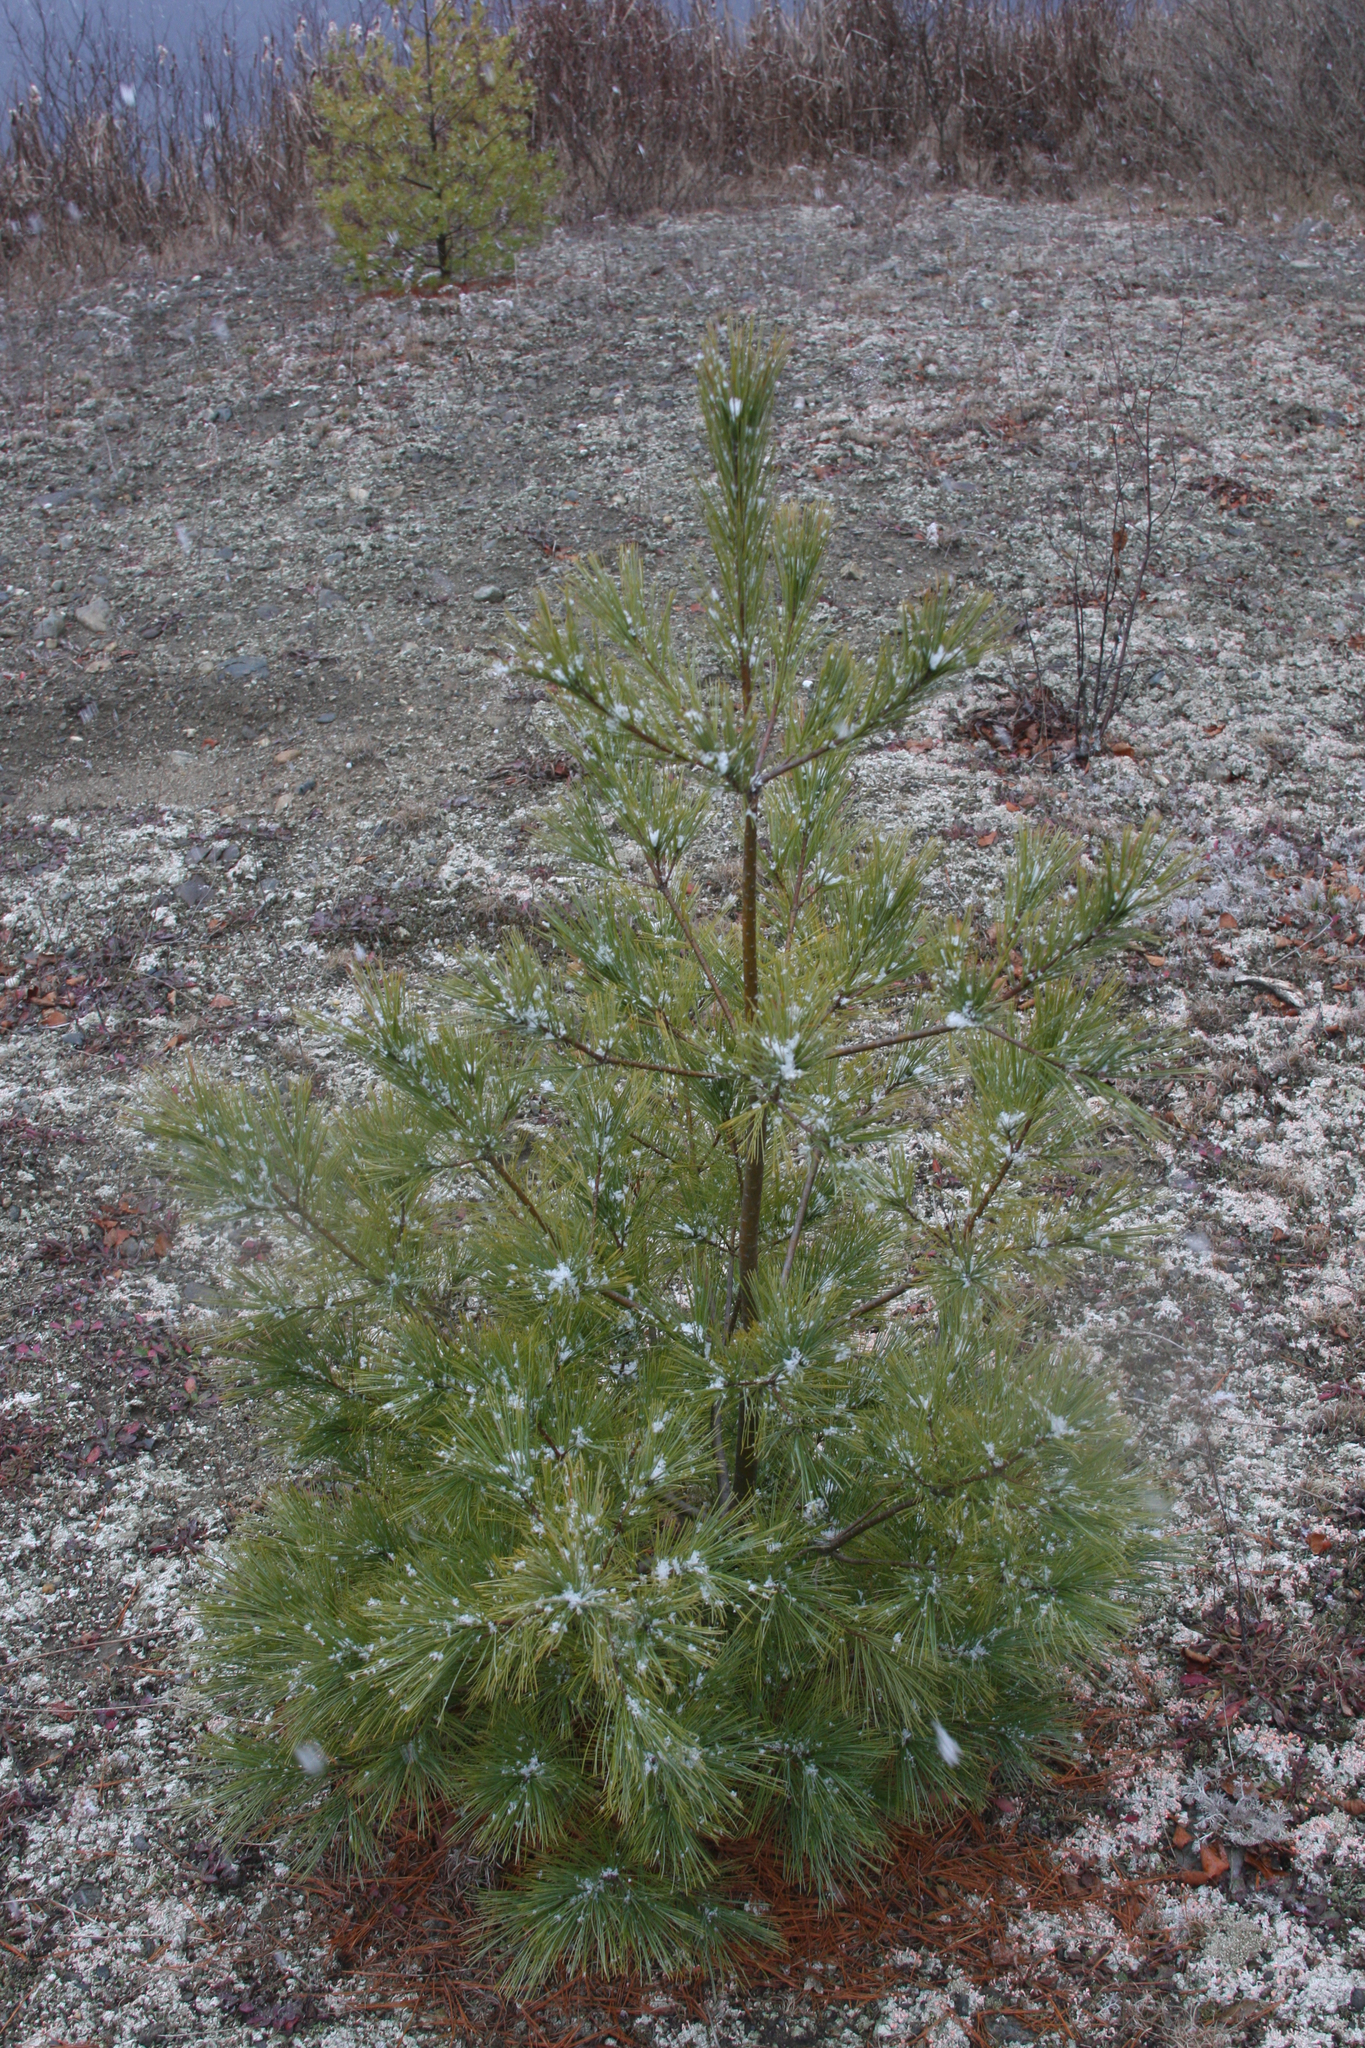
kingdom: Plantae
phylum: Tracheophyta
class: Pinopsida
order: Pinales
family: Pinaceae
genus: Pinus
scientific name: Pinus strobus
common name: Weymouth pine
